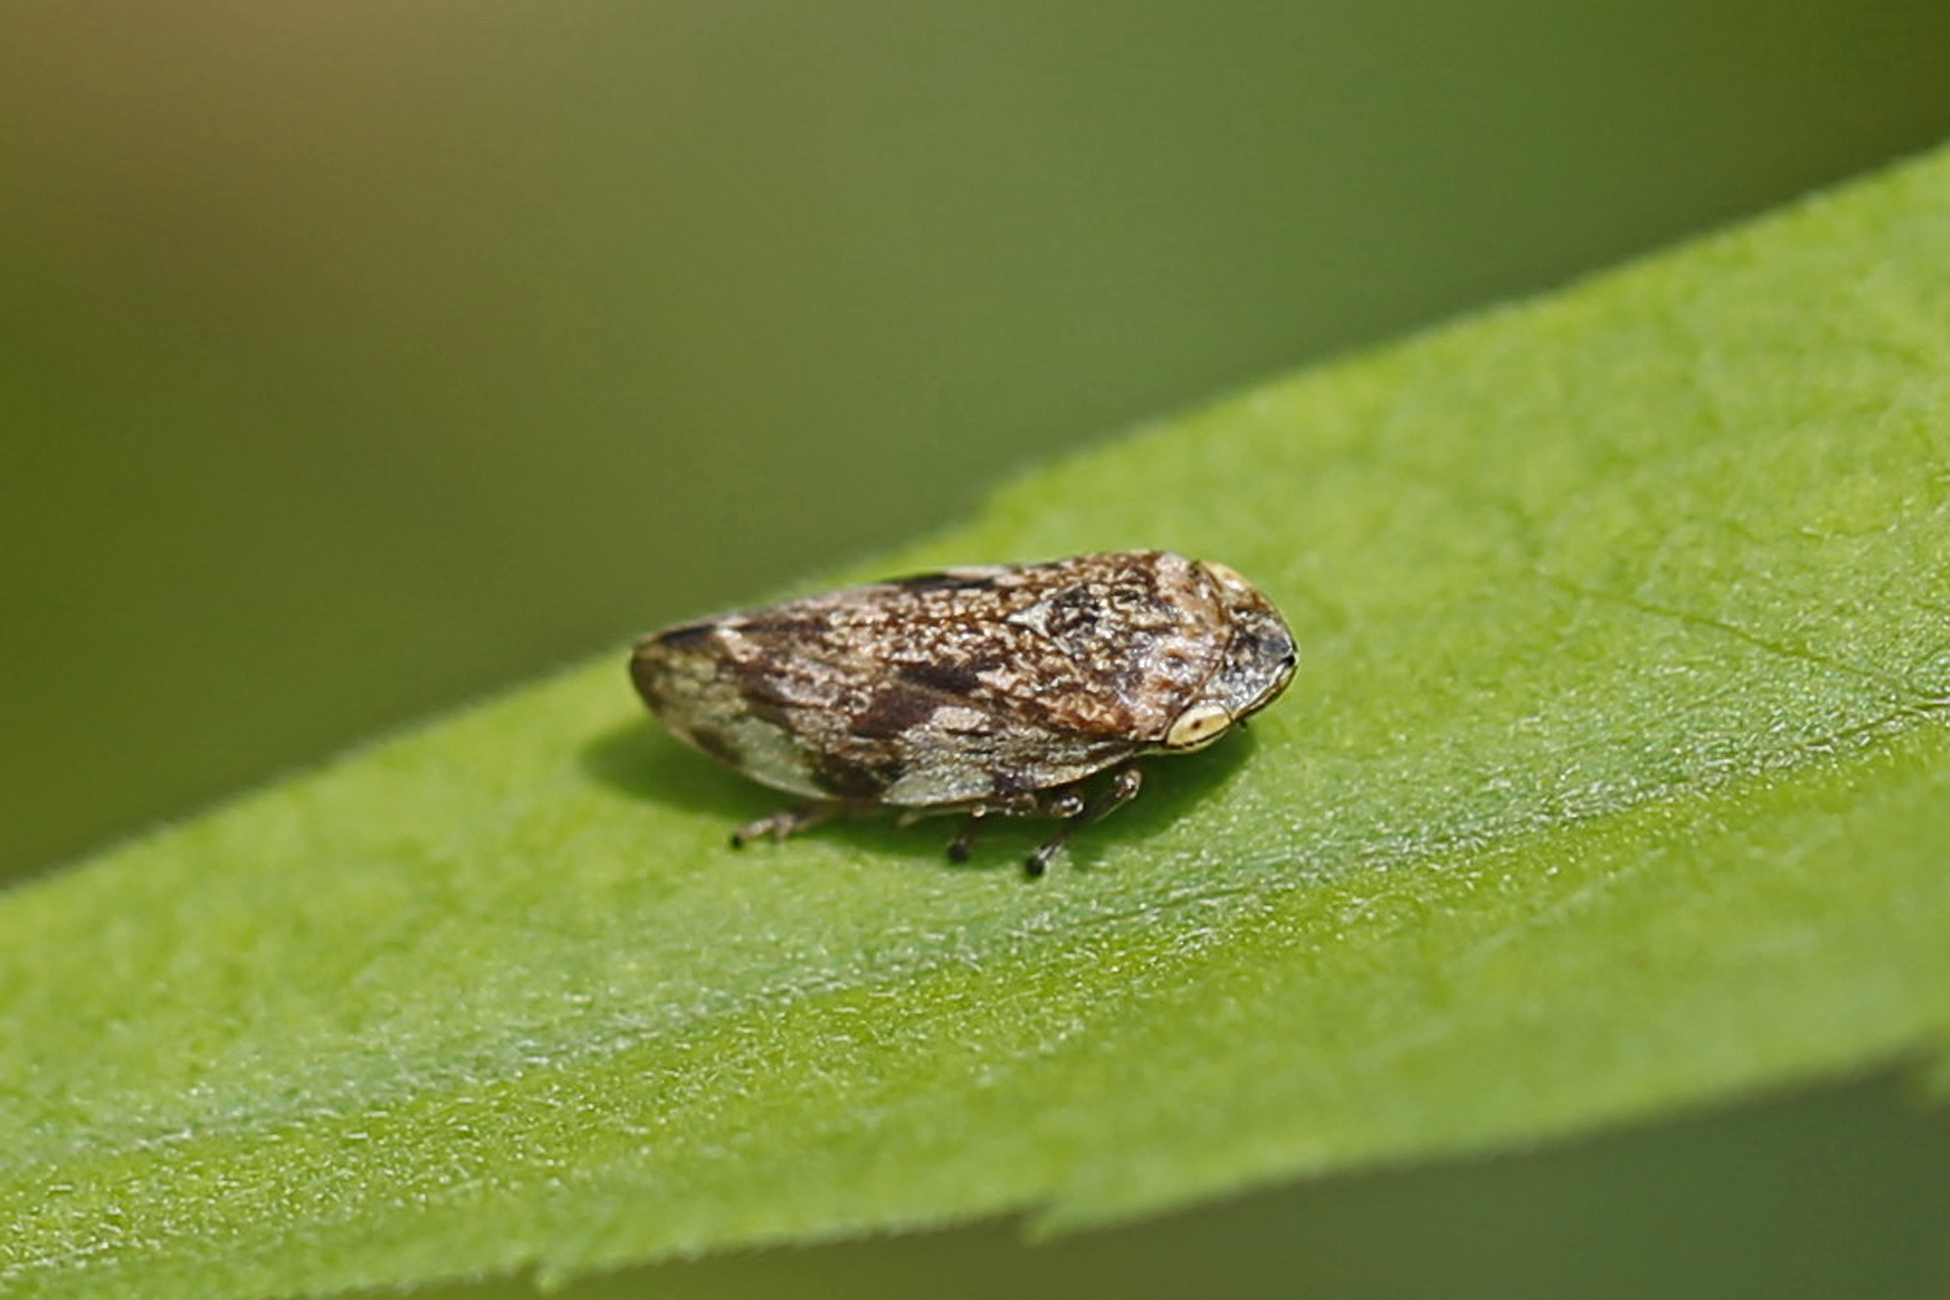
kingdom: Animalia
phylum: Arthropoda
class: Insecta
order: Hemiptera
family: Aphrophoridae
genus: Philaenus
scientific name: Philaenus spumarius
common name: Meadow spittlebug
